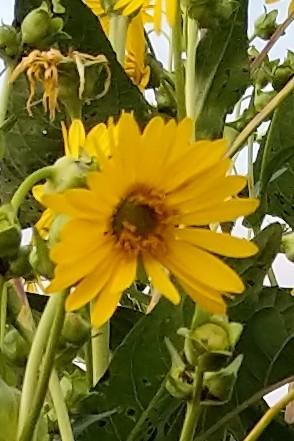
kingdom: Plantae
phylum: Tracheophyta
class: Magnoliopsida
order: Asterales
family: Asteraceae
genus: Silphium
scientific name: Silphium perfoliatum
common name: Cup-plant
